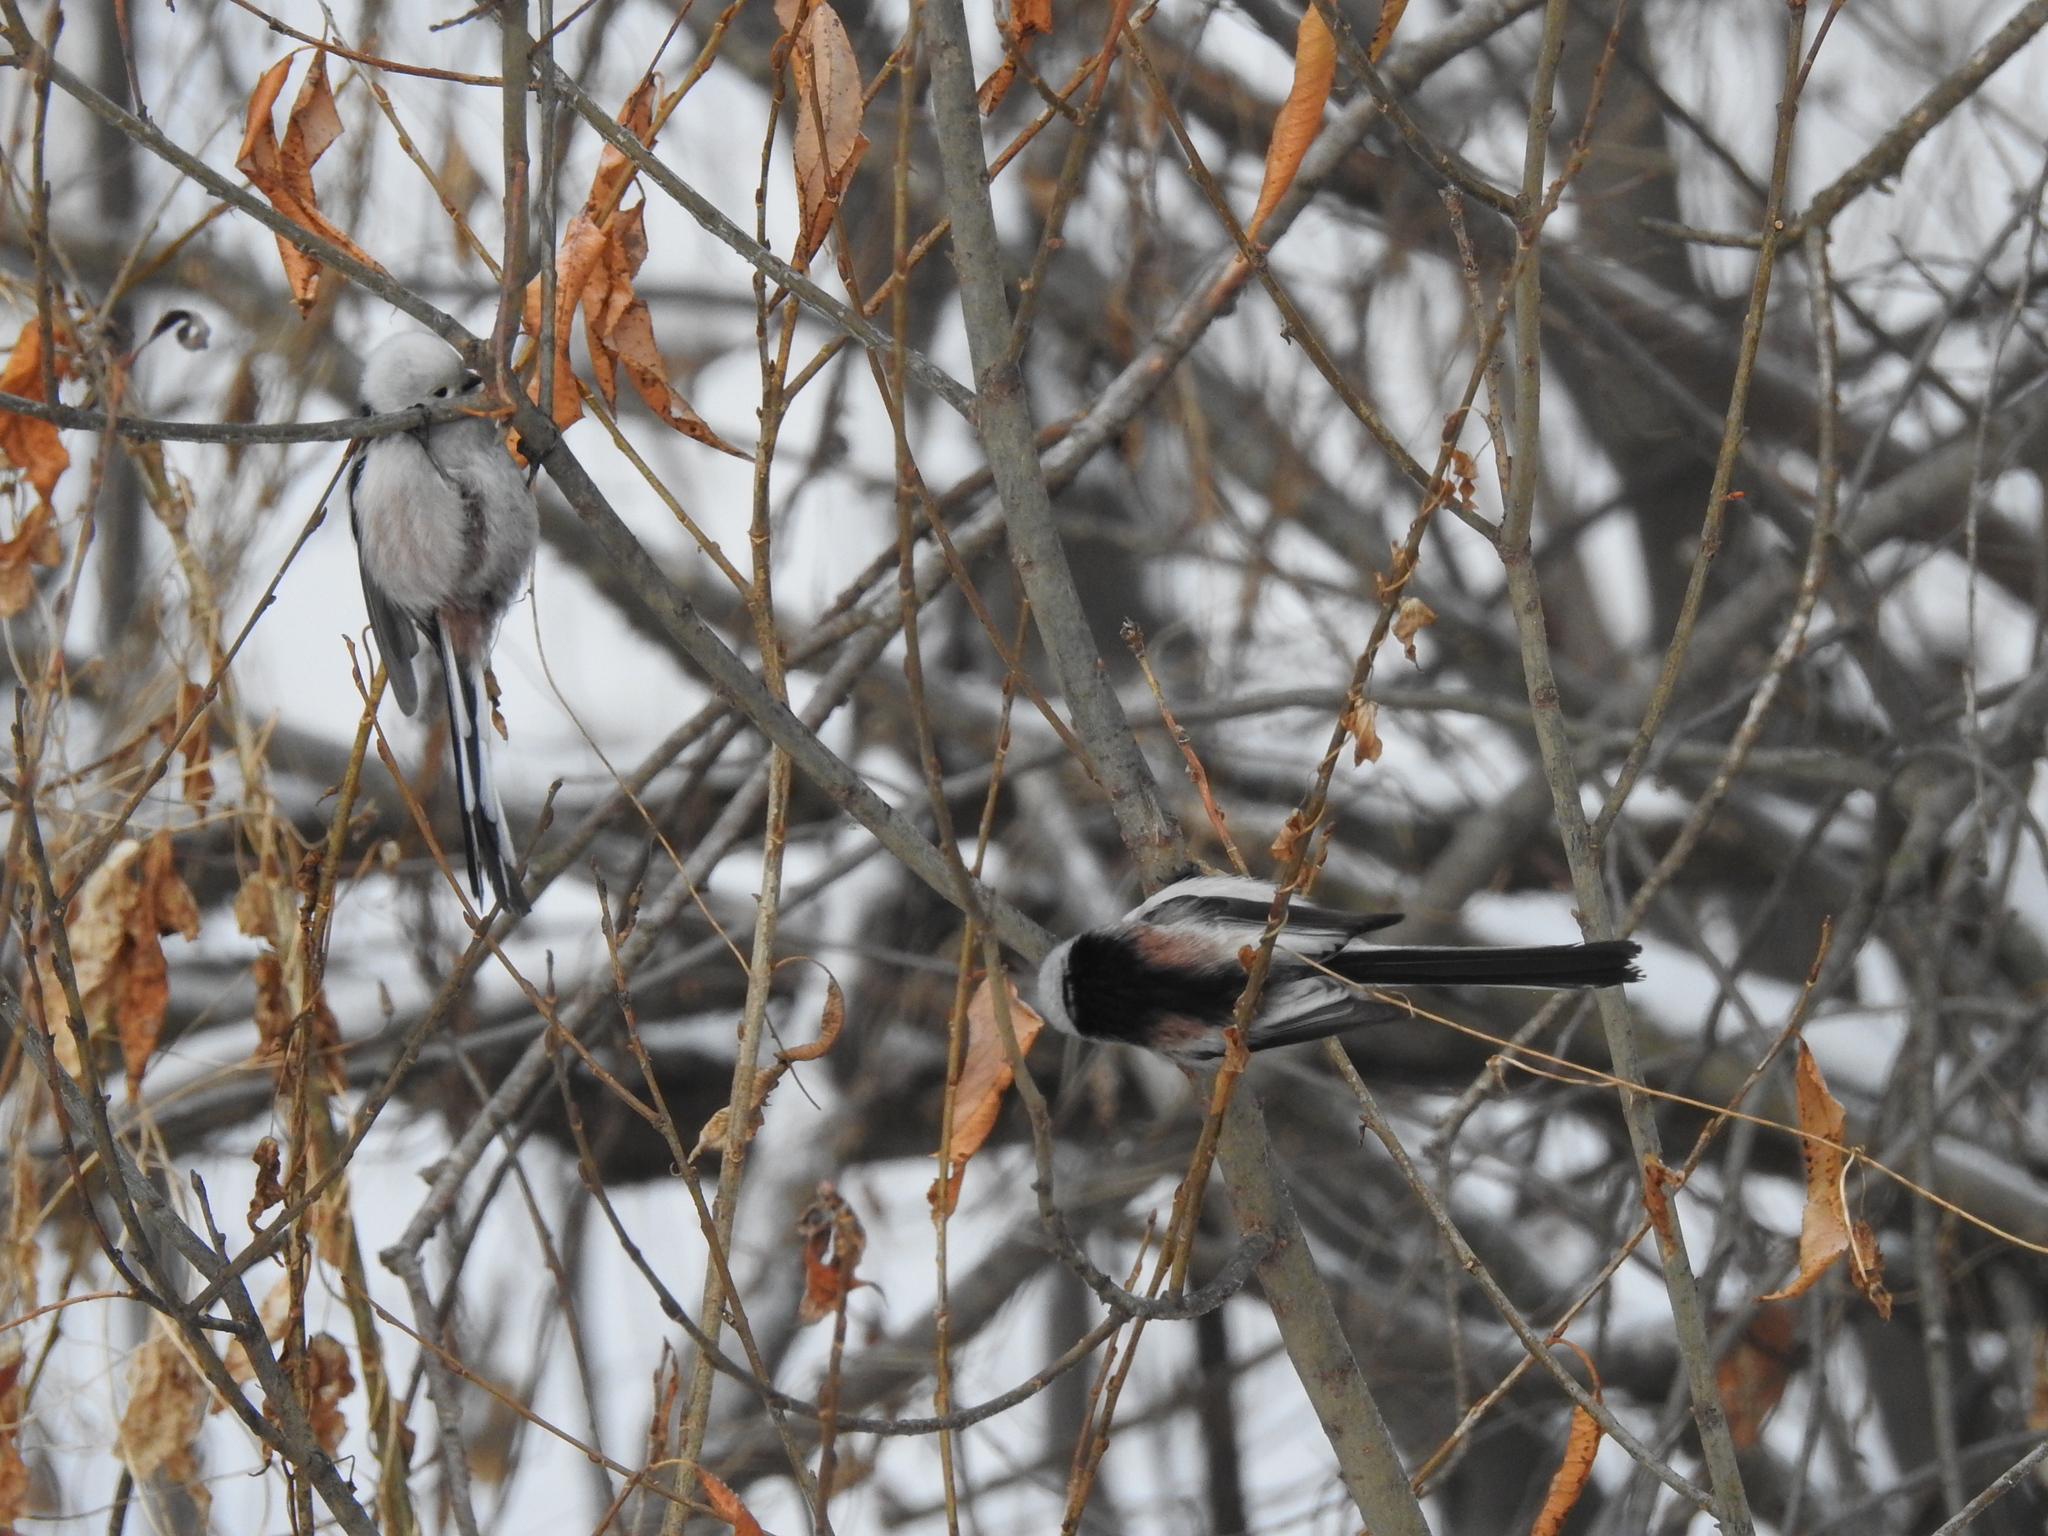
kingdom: Animalia
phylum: Chordata
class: Aves
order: Passeriformes
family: Aegithalidae
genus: Aegithalos
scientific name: Aegithalos caudatus
